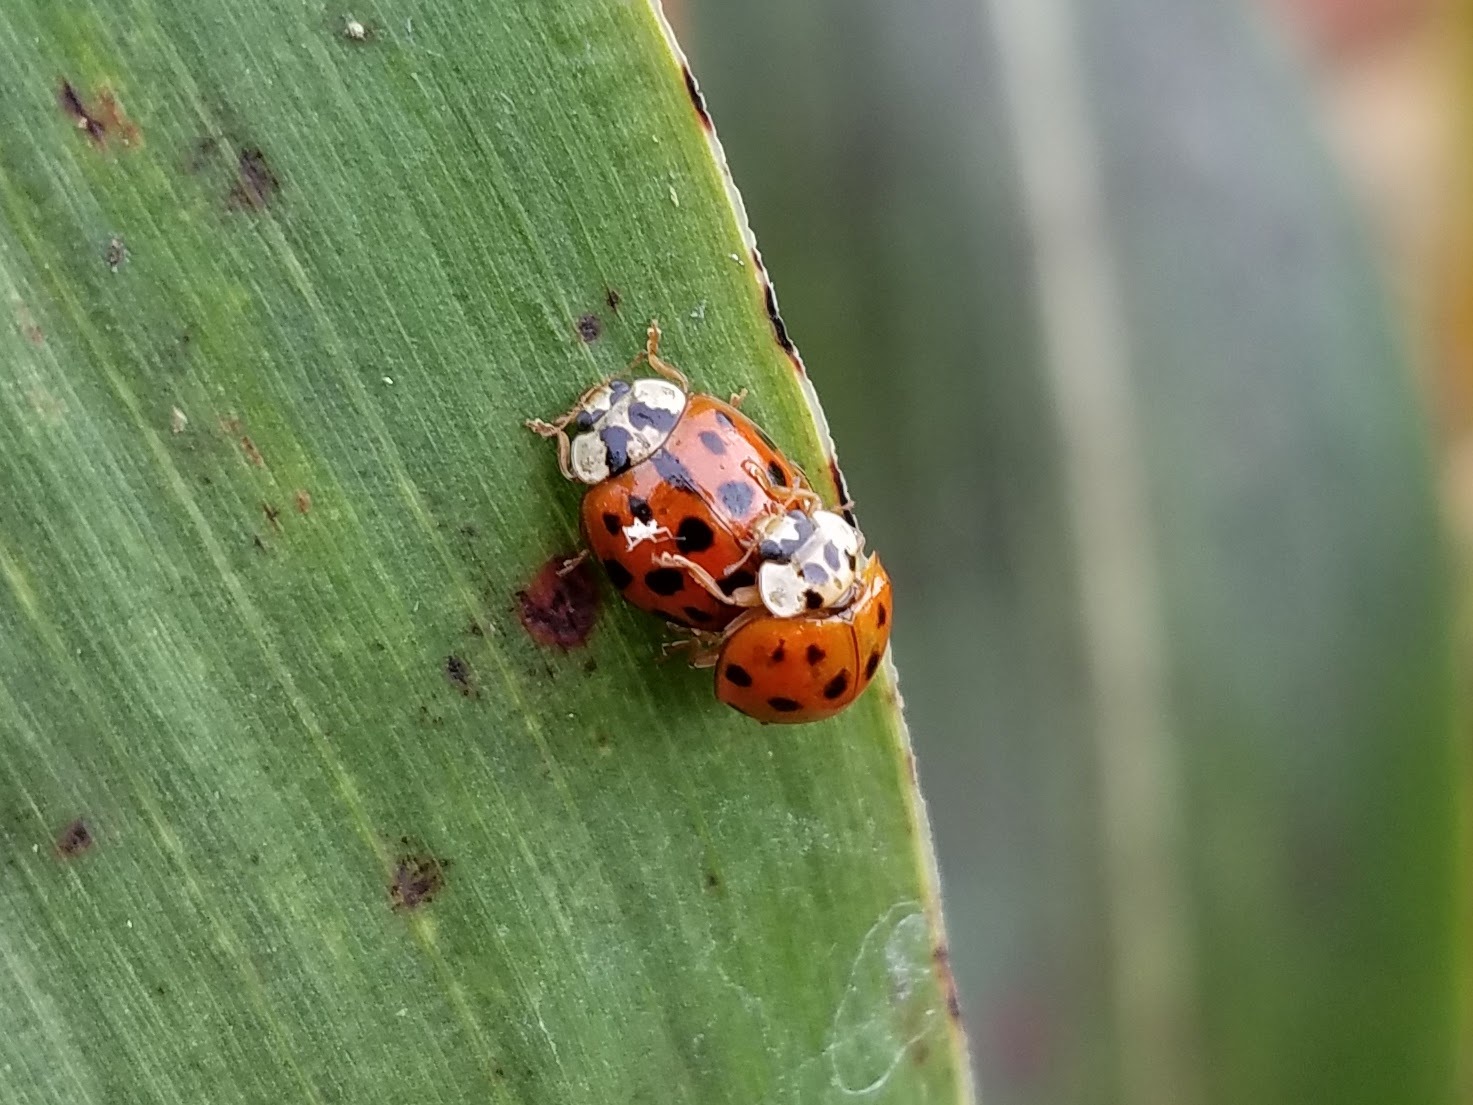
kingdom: Animalia
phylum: Arthropoda
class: Insecta
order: Coleoptera
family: Coccinellidae
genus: Harmonia
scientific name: Harmonia axyridis
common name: Harlequin ladybird
